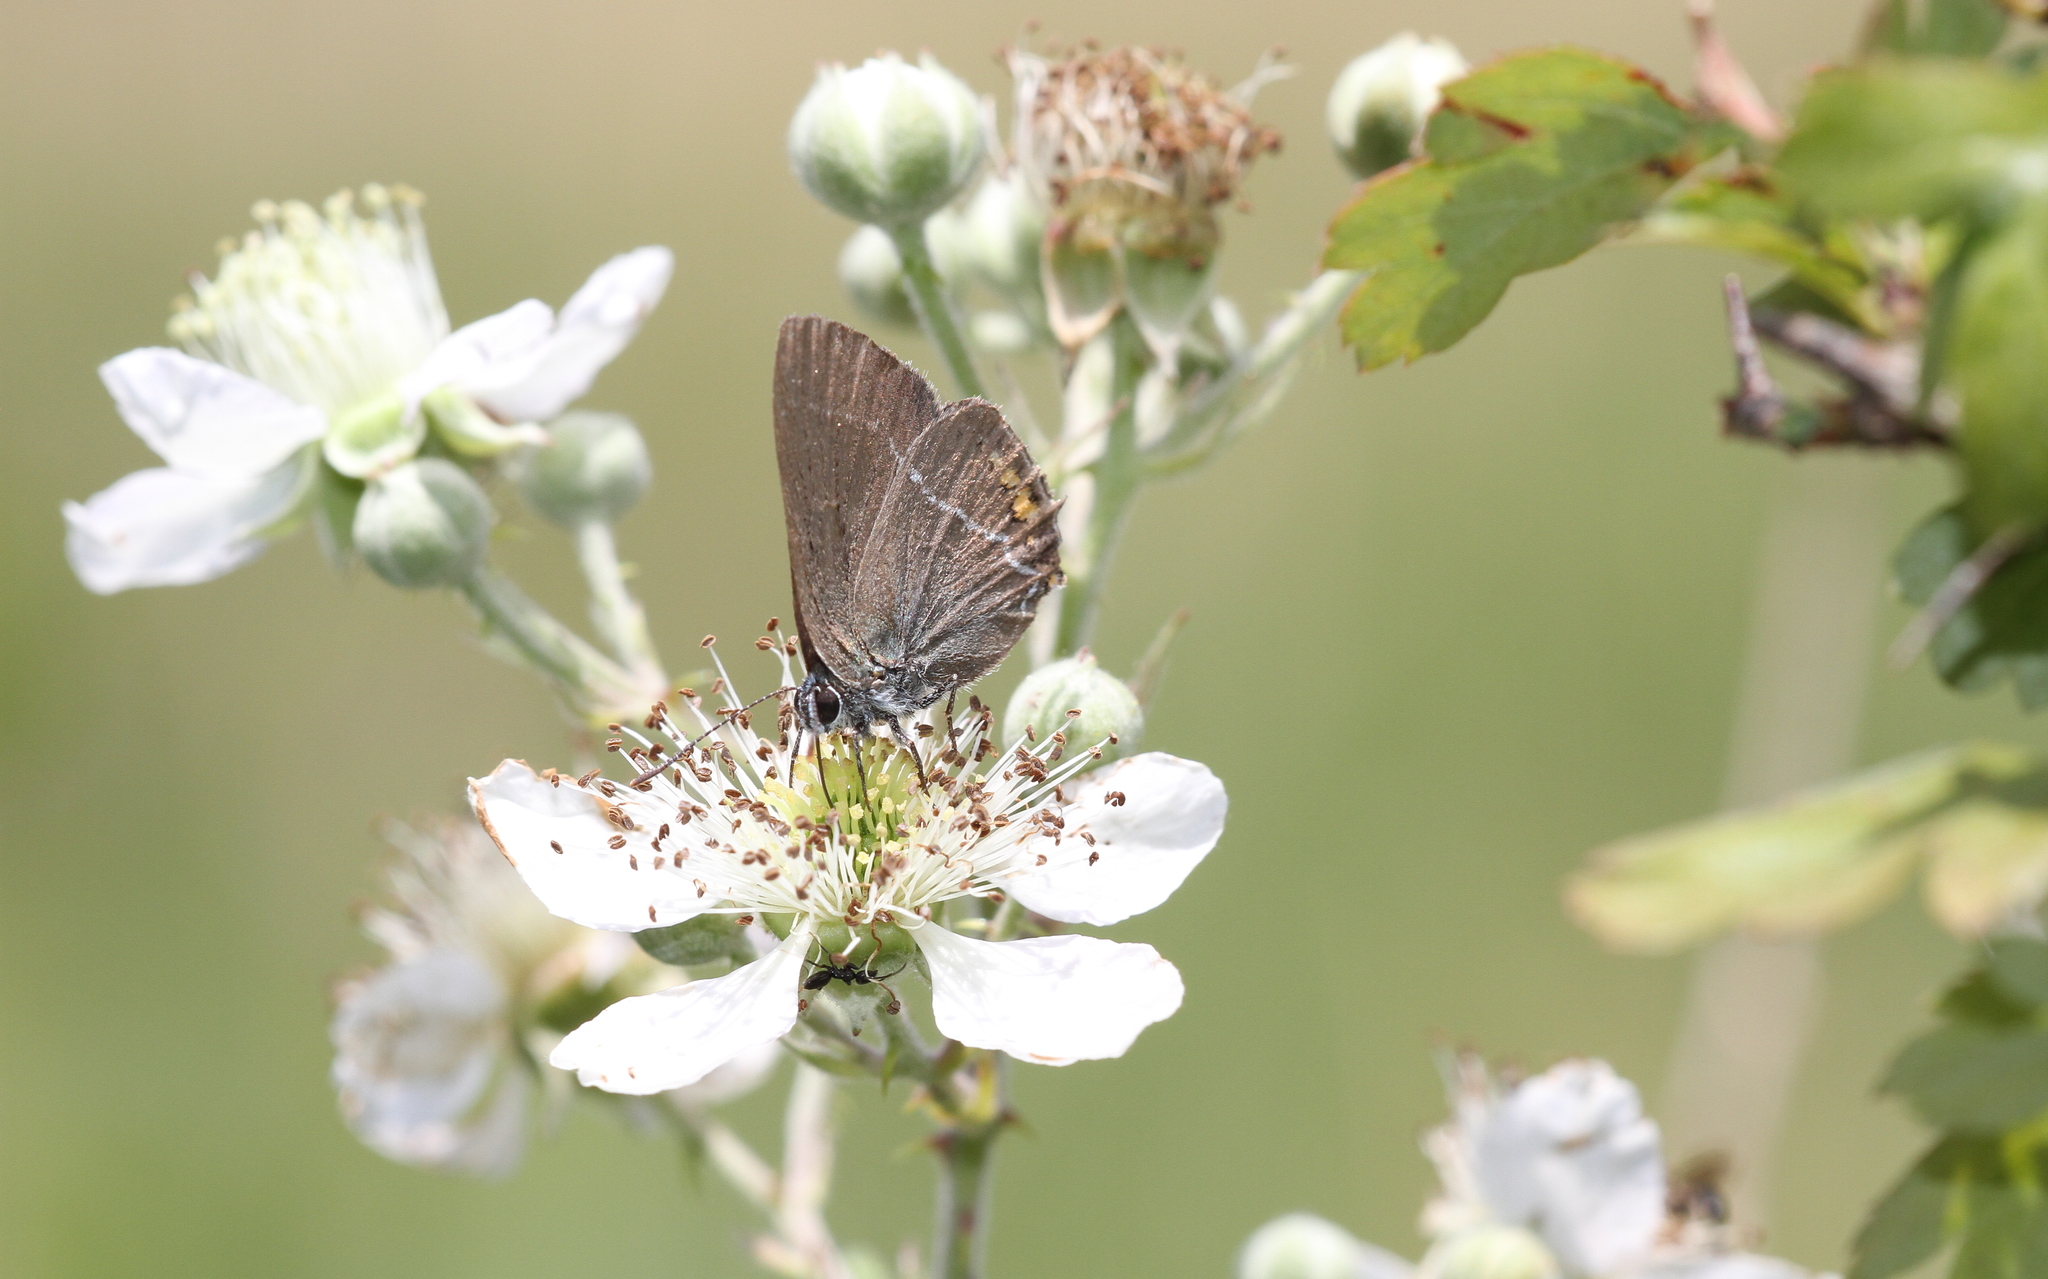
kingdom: Animalia
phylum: Arthropoda
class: Insecta
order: Lepidoptera
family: Lycaenidae
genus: Strymon
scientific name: Strymon acaciae
